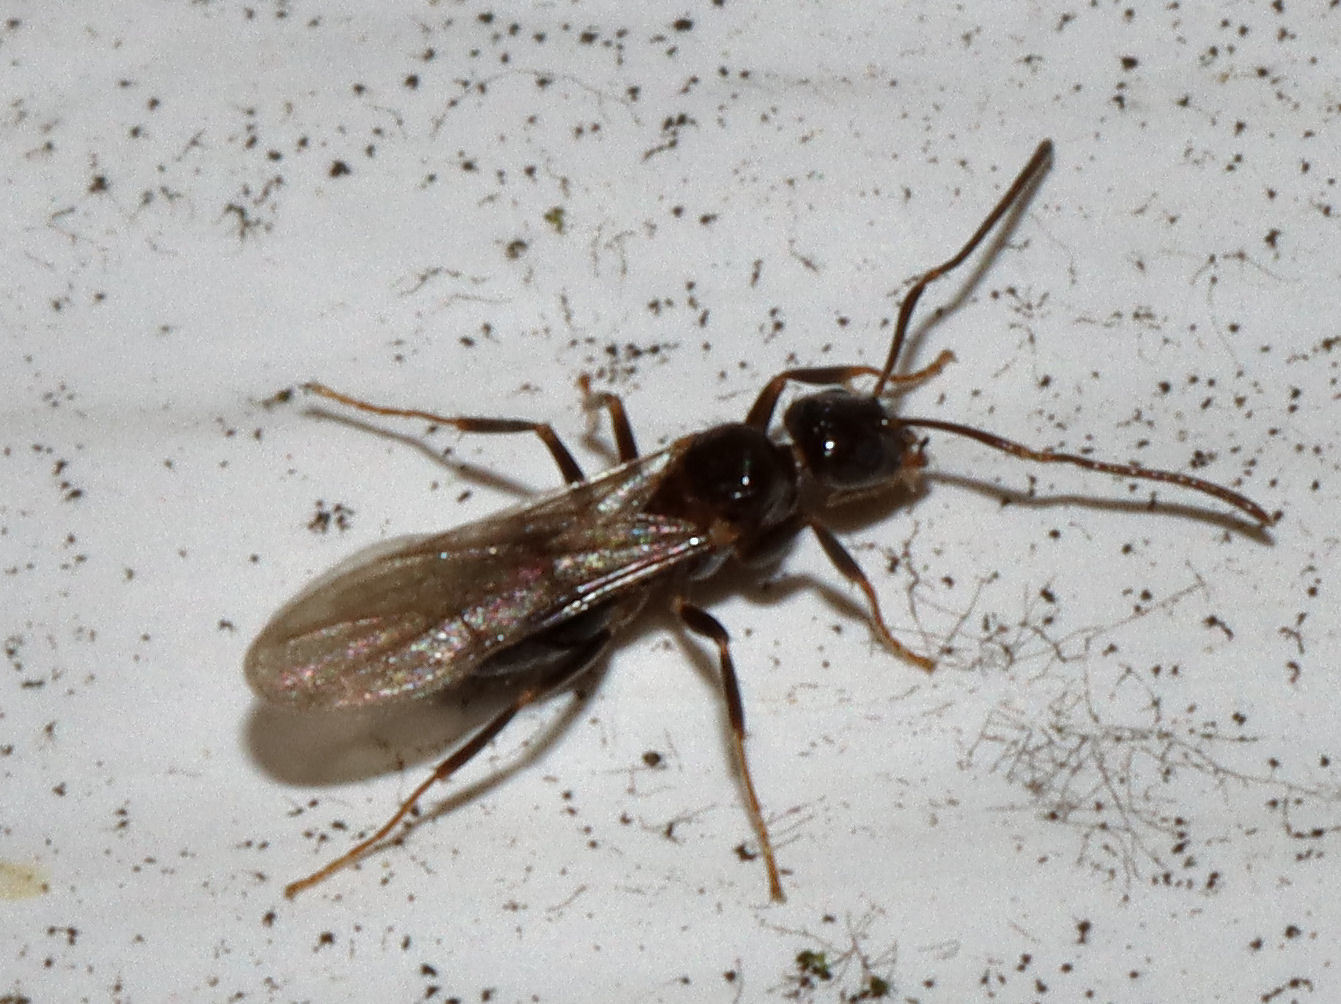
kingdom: Animalia
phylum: Arthropoda
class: Insecta
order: Hymenoptera
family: Formicidae
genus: Nylanderia
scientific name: Nylanderia
